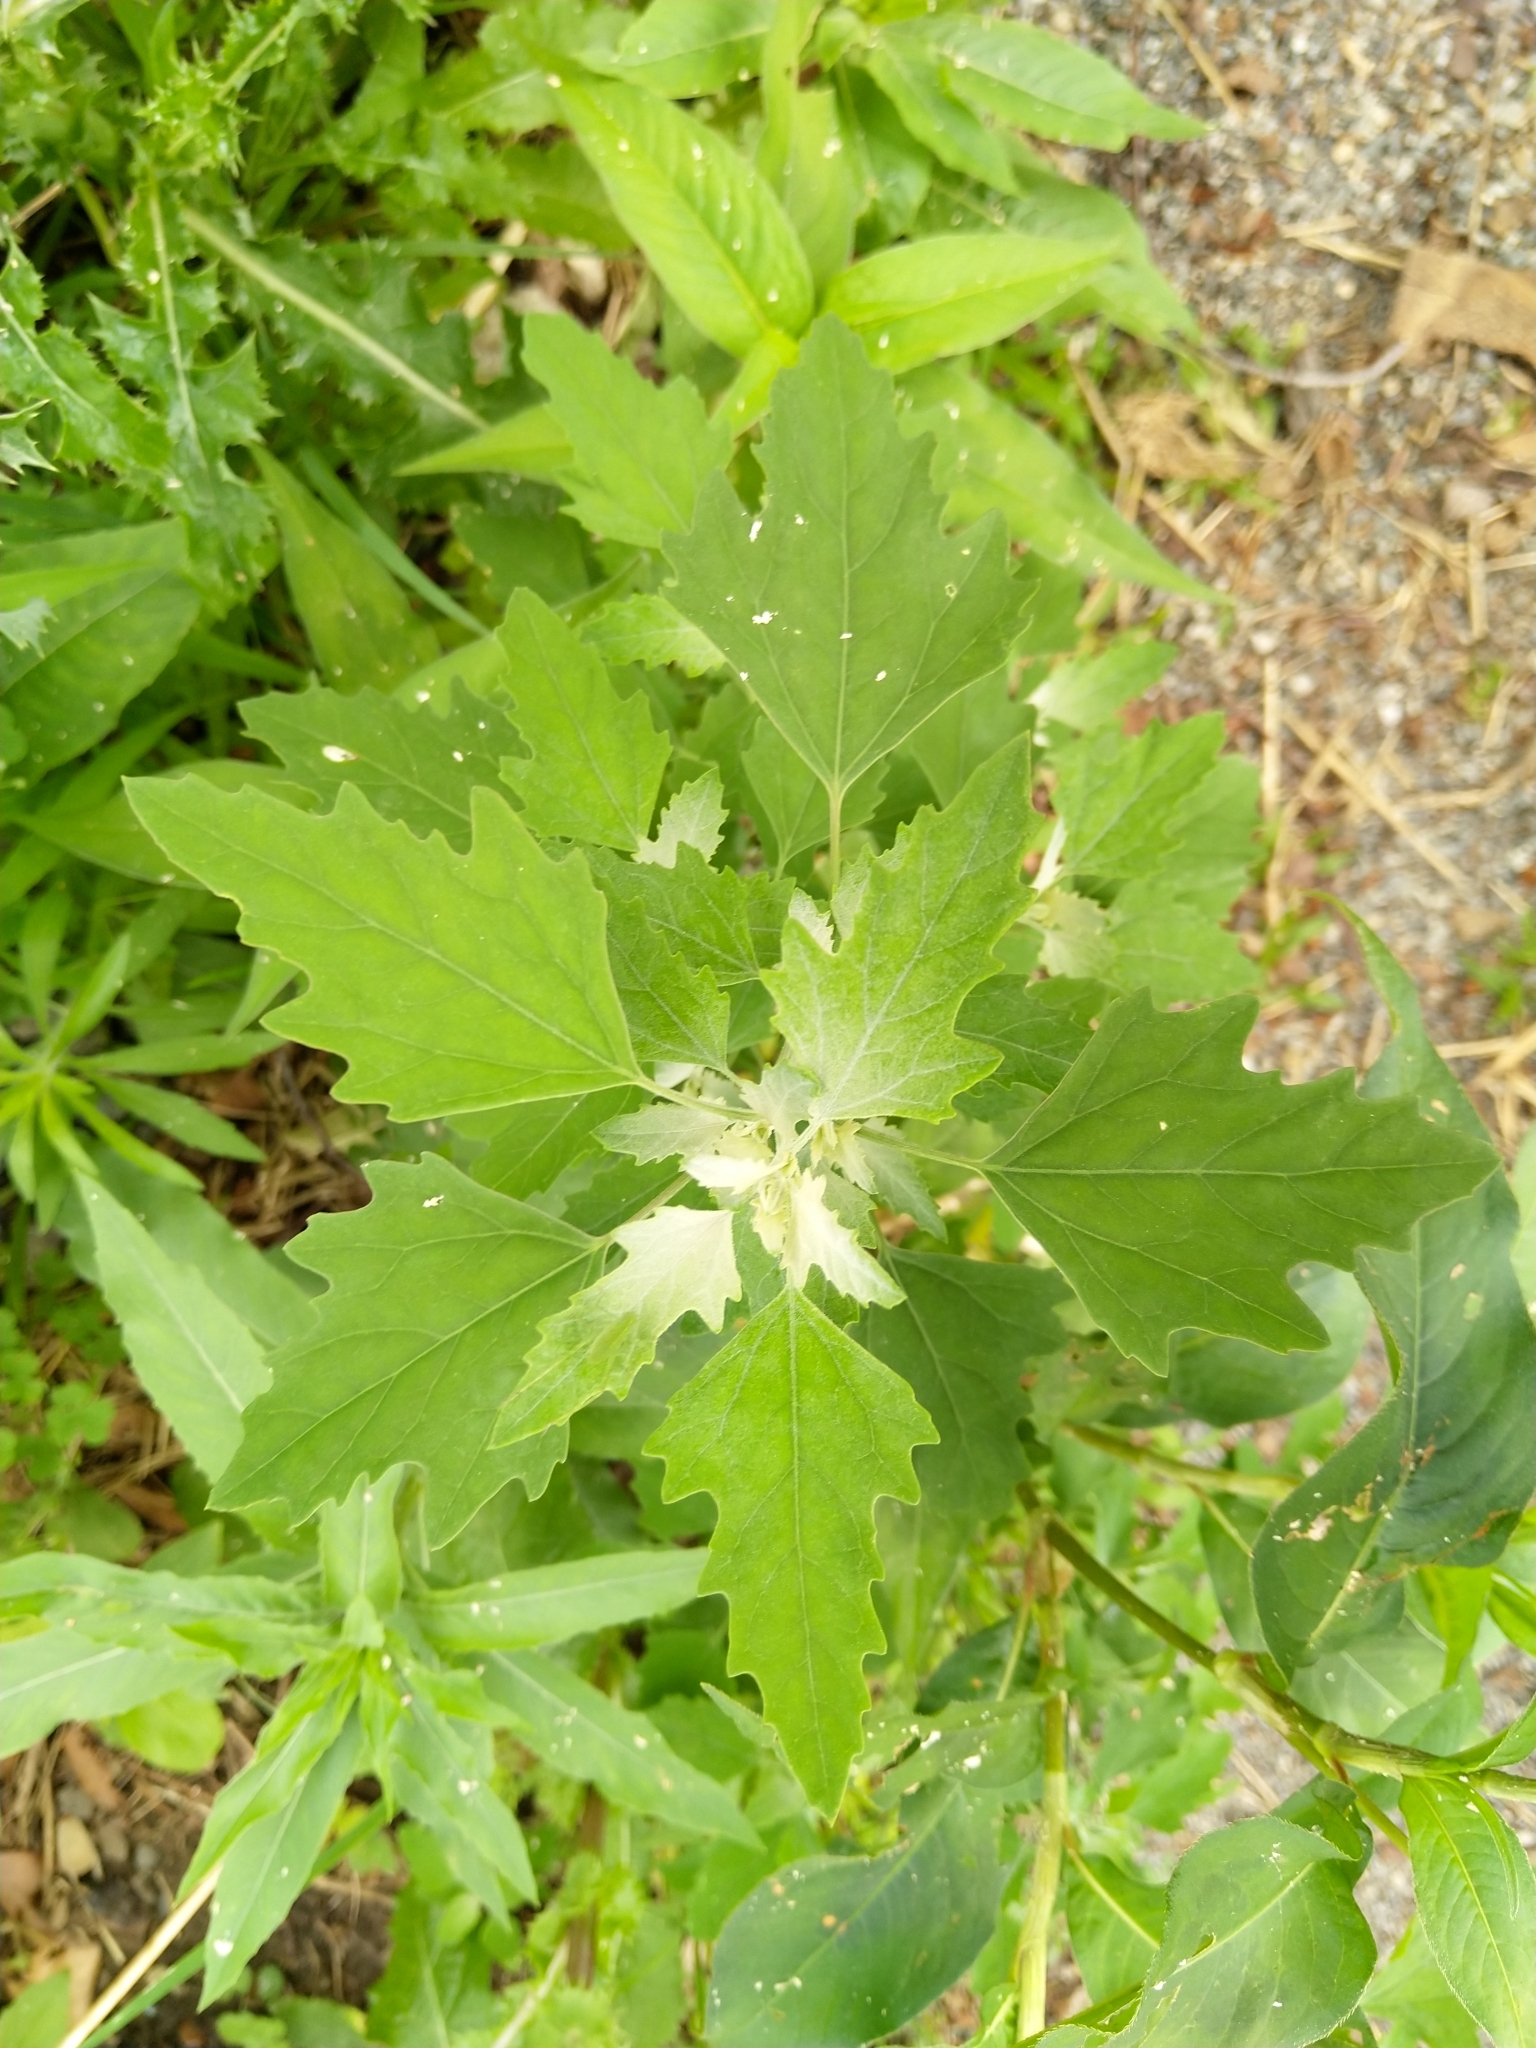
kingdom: Plantae
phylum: Tracheophyta
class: Magnoliopsida
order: Caryophyllales
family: Amaranthaceae
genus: Chenopodium
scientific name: Chenopodium album
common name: Fat-hen
